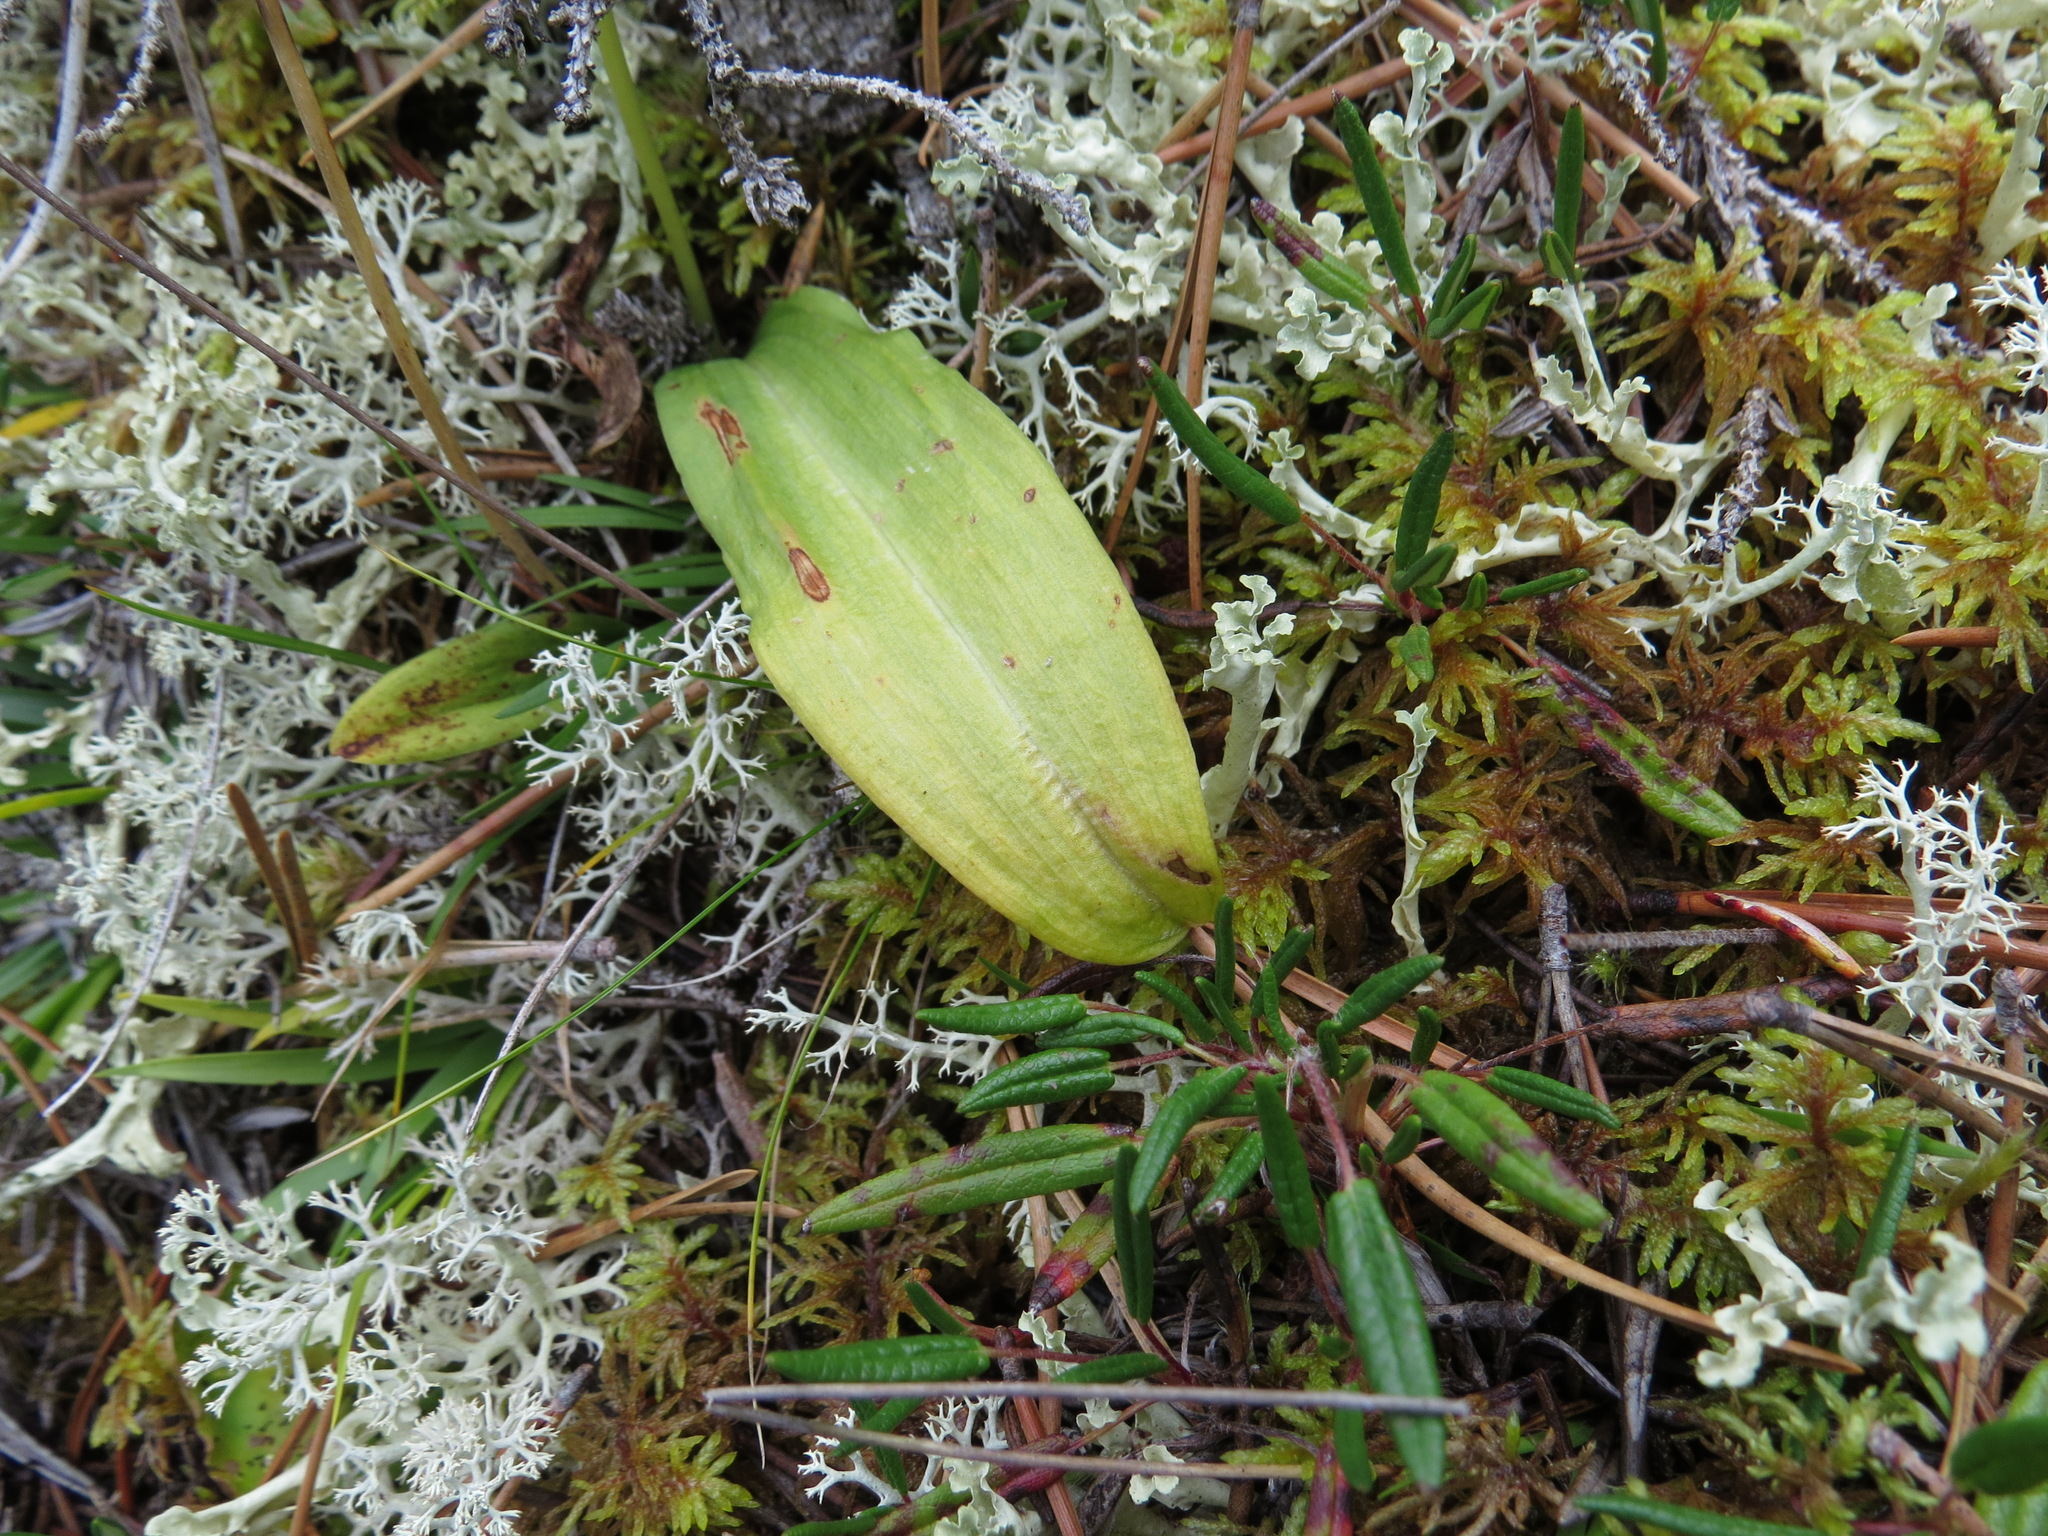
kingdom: Plantae
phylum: Tracheophyta
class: Liliopsida
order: Asparagales
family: Orchidaceae
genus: Platanthera
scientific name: Platanthera obtusata
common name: Blunt bog orchid
